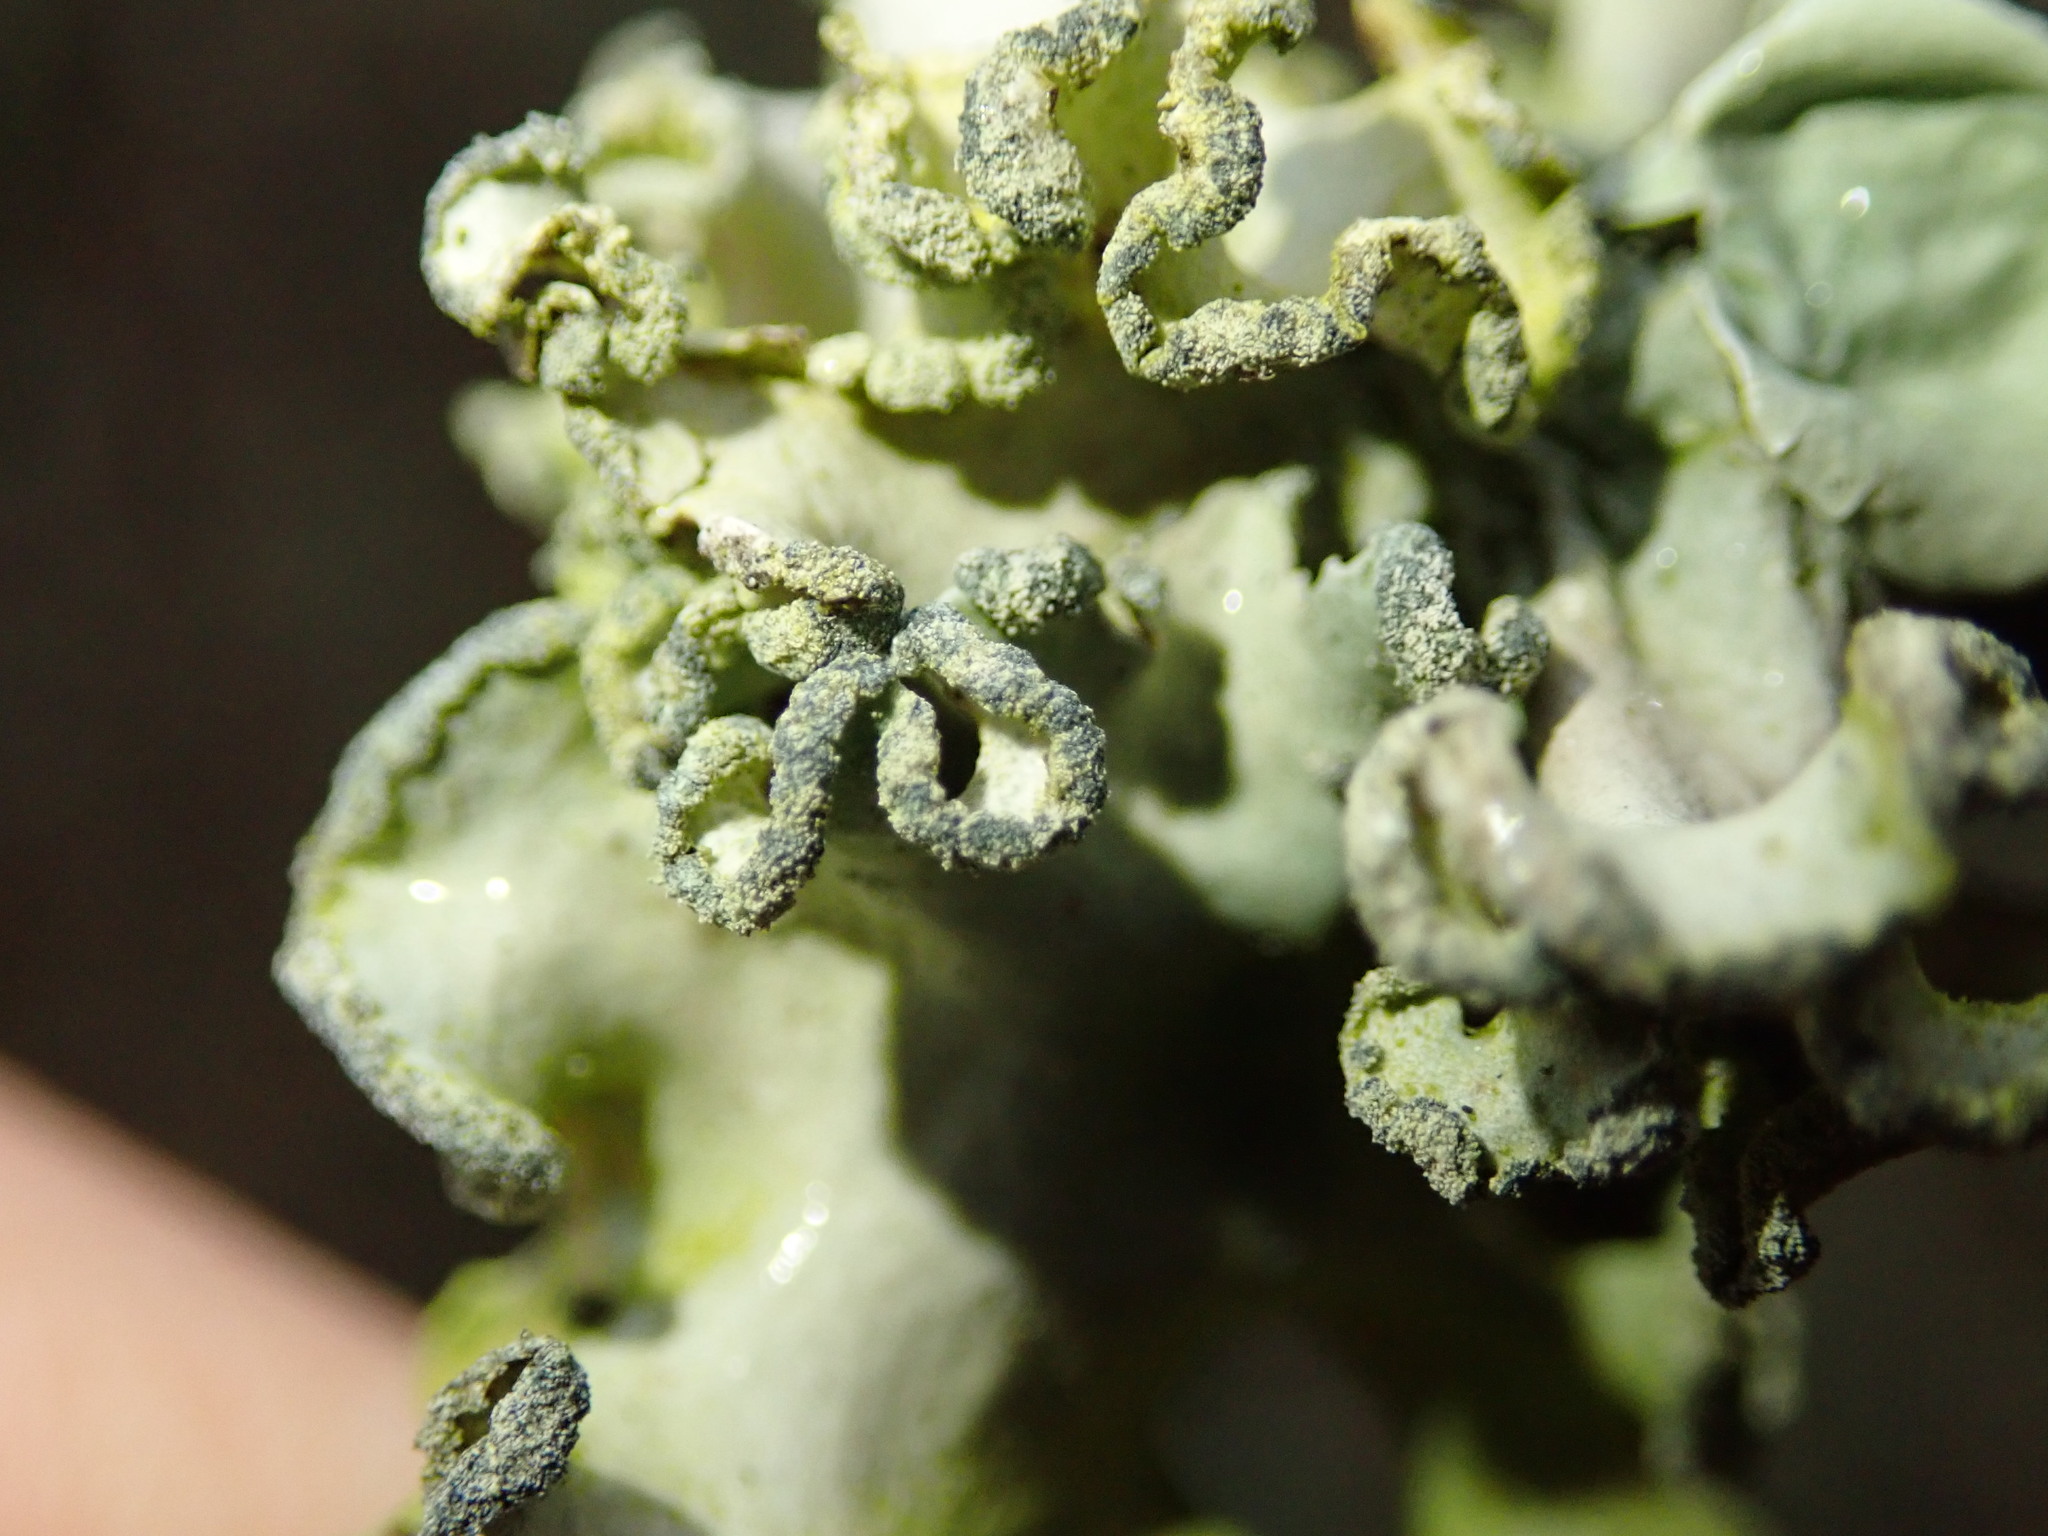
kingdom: Fungi
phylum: Ascomycota
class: Lecanoromycetes
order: Lecanorales
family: Parmeliaceae
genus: Parmotrema
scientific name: Parmotrema austrosinense
